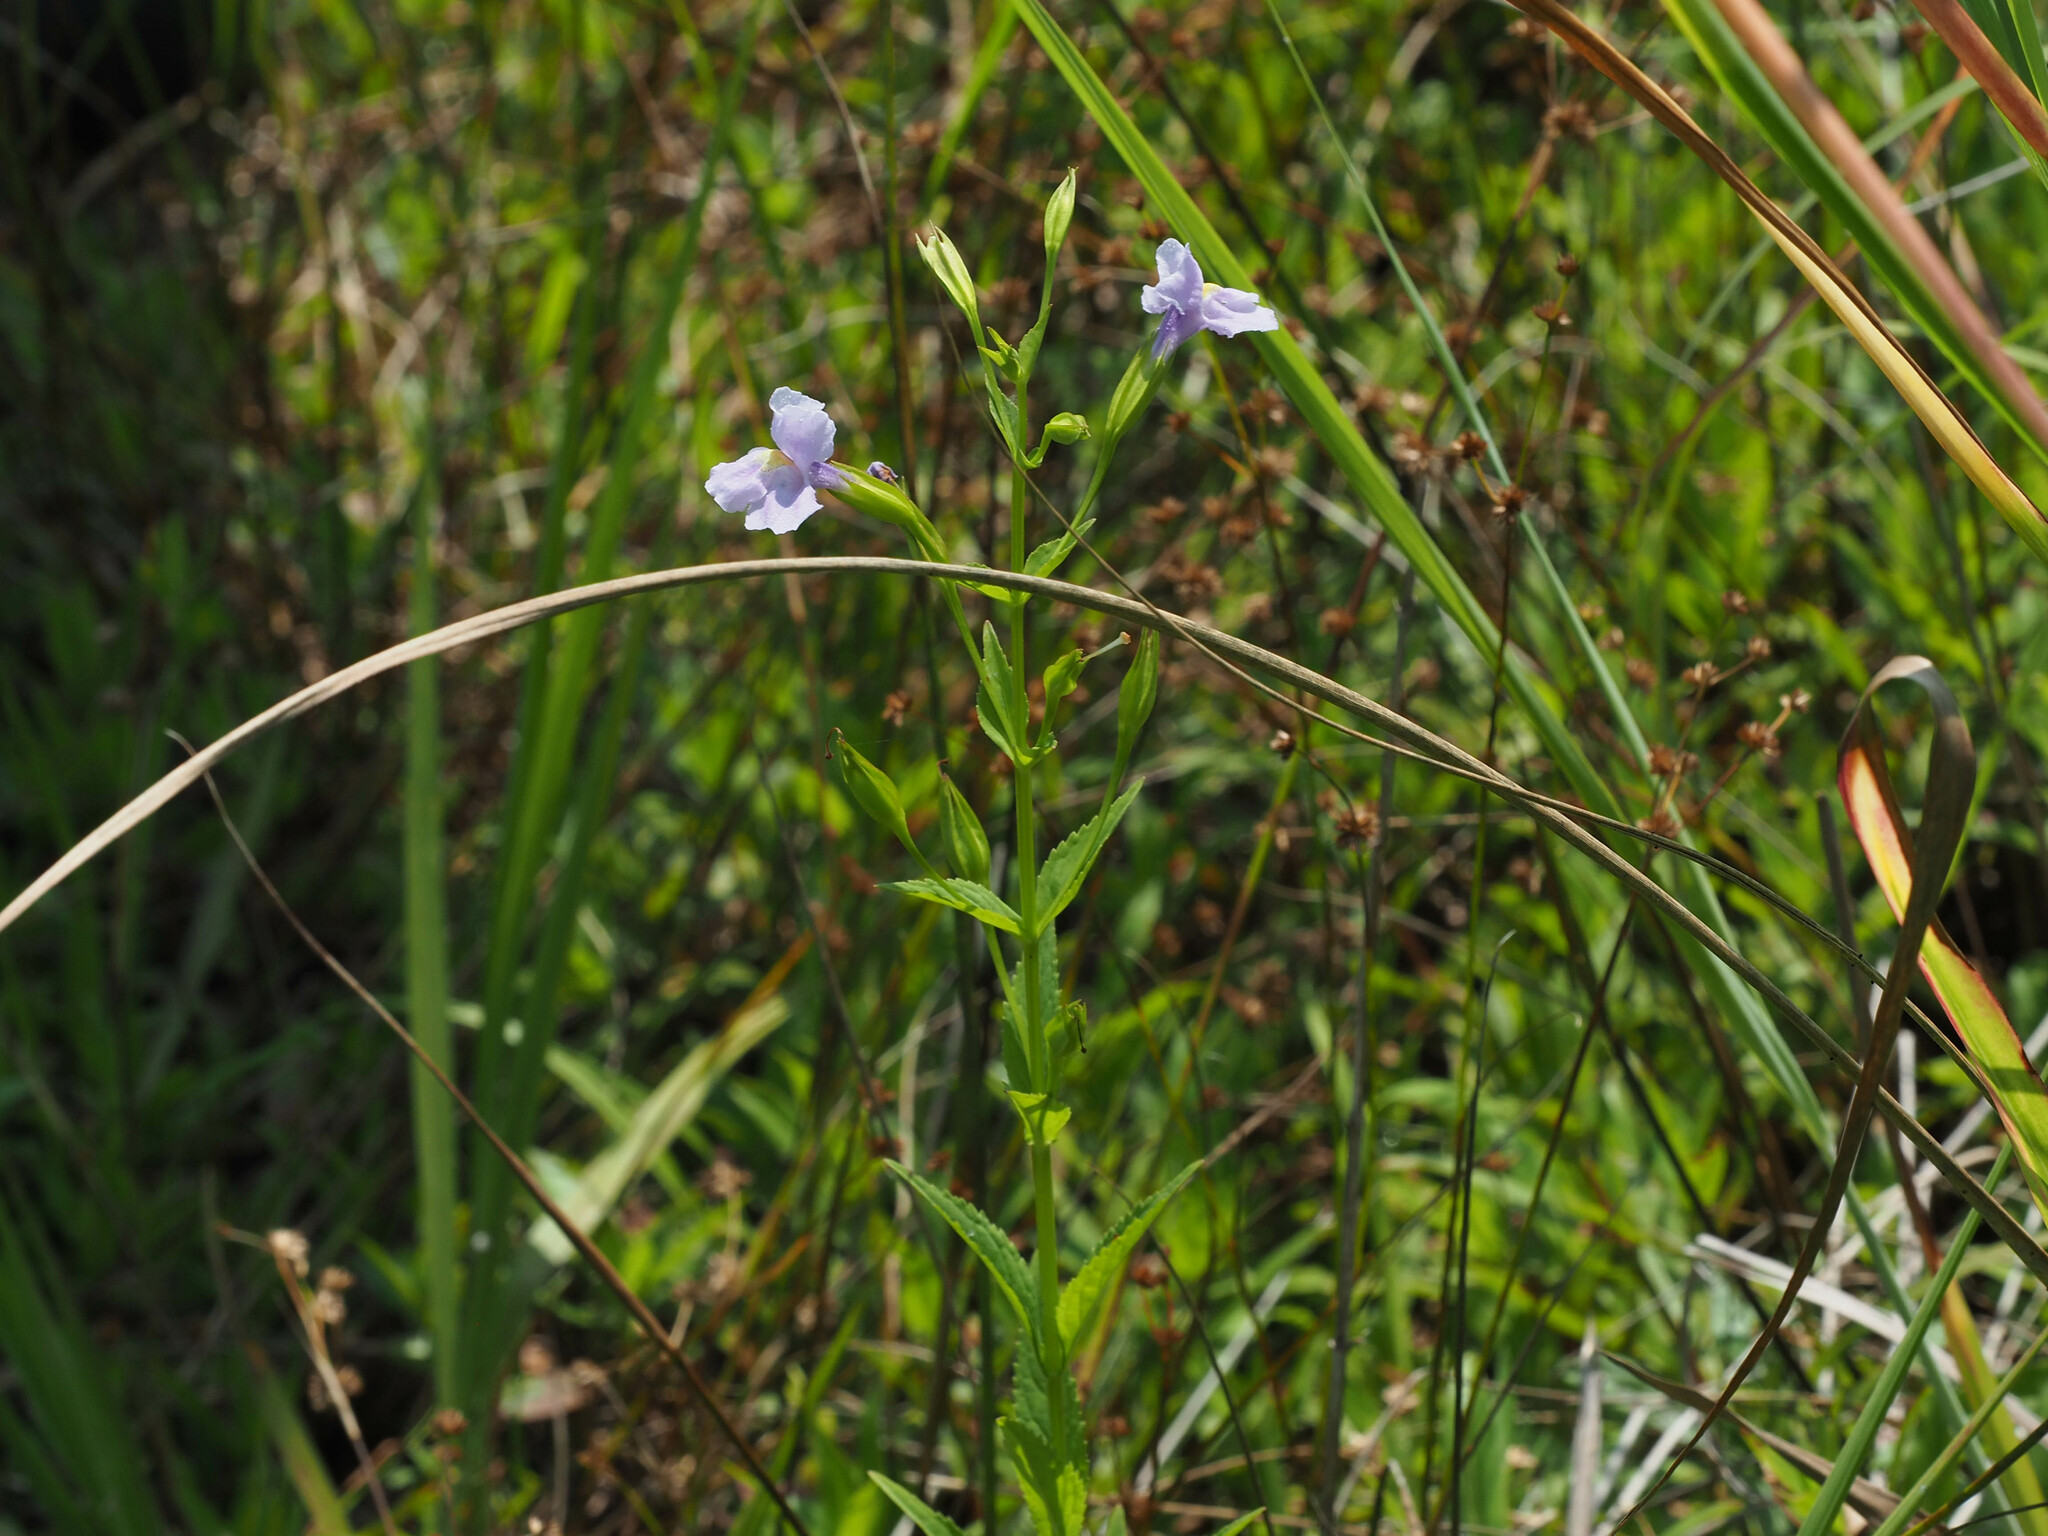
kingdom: Plantae
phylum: Tracheophyta
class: Magnoliopsida
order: Lamiales
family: Phrymaceae
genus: Mimulus
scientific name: Mimulus ringens
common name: Allegheny monkeyflower
